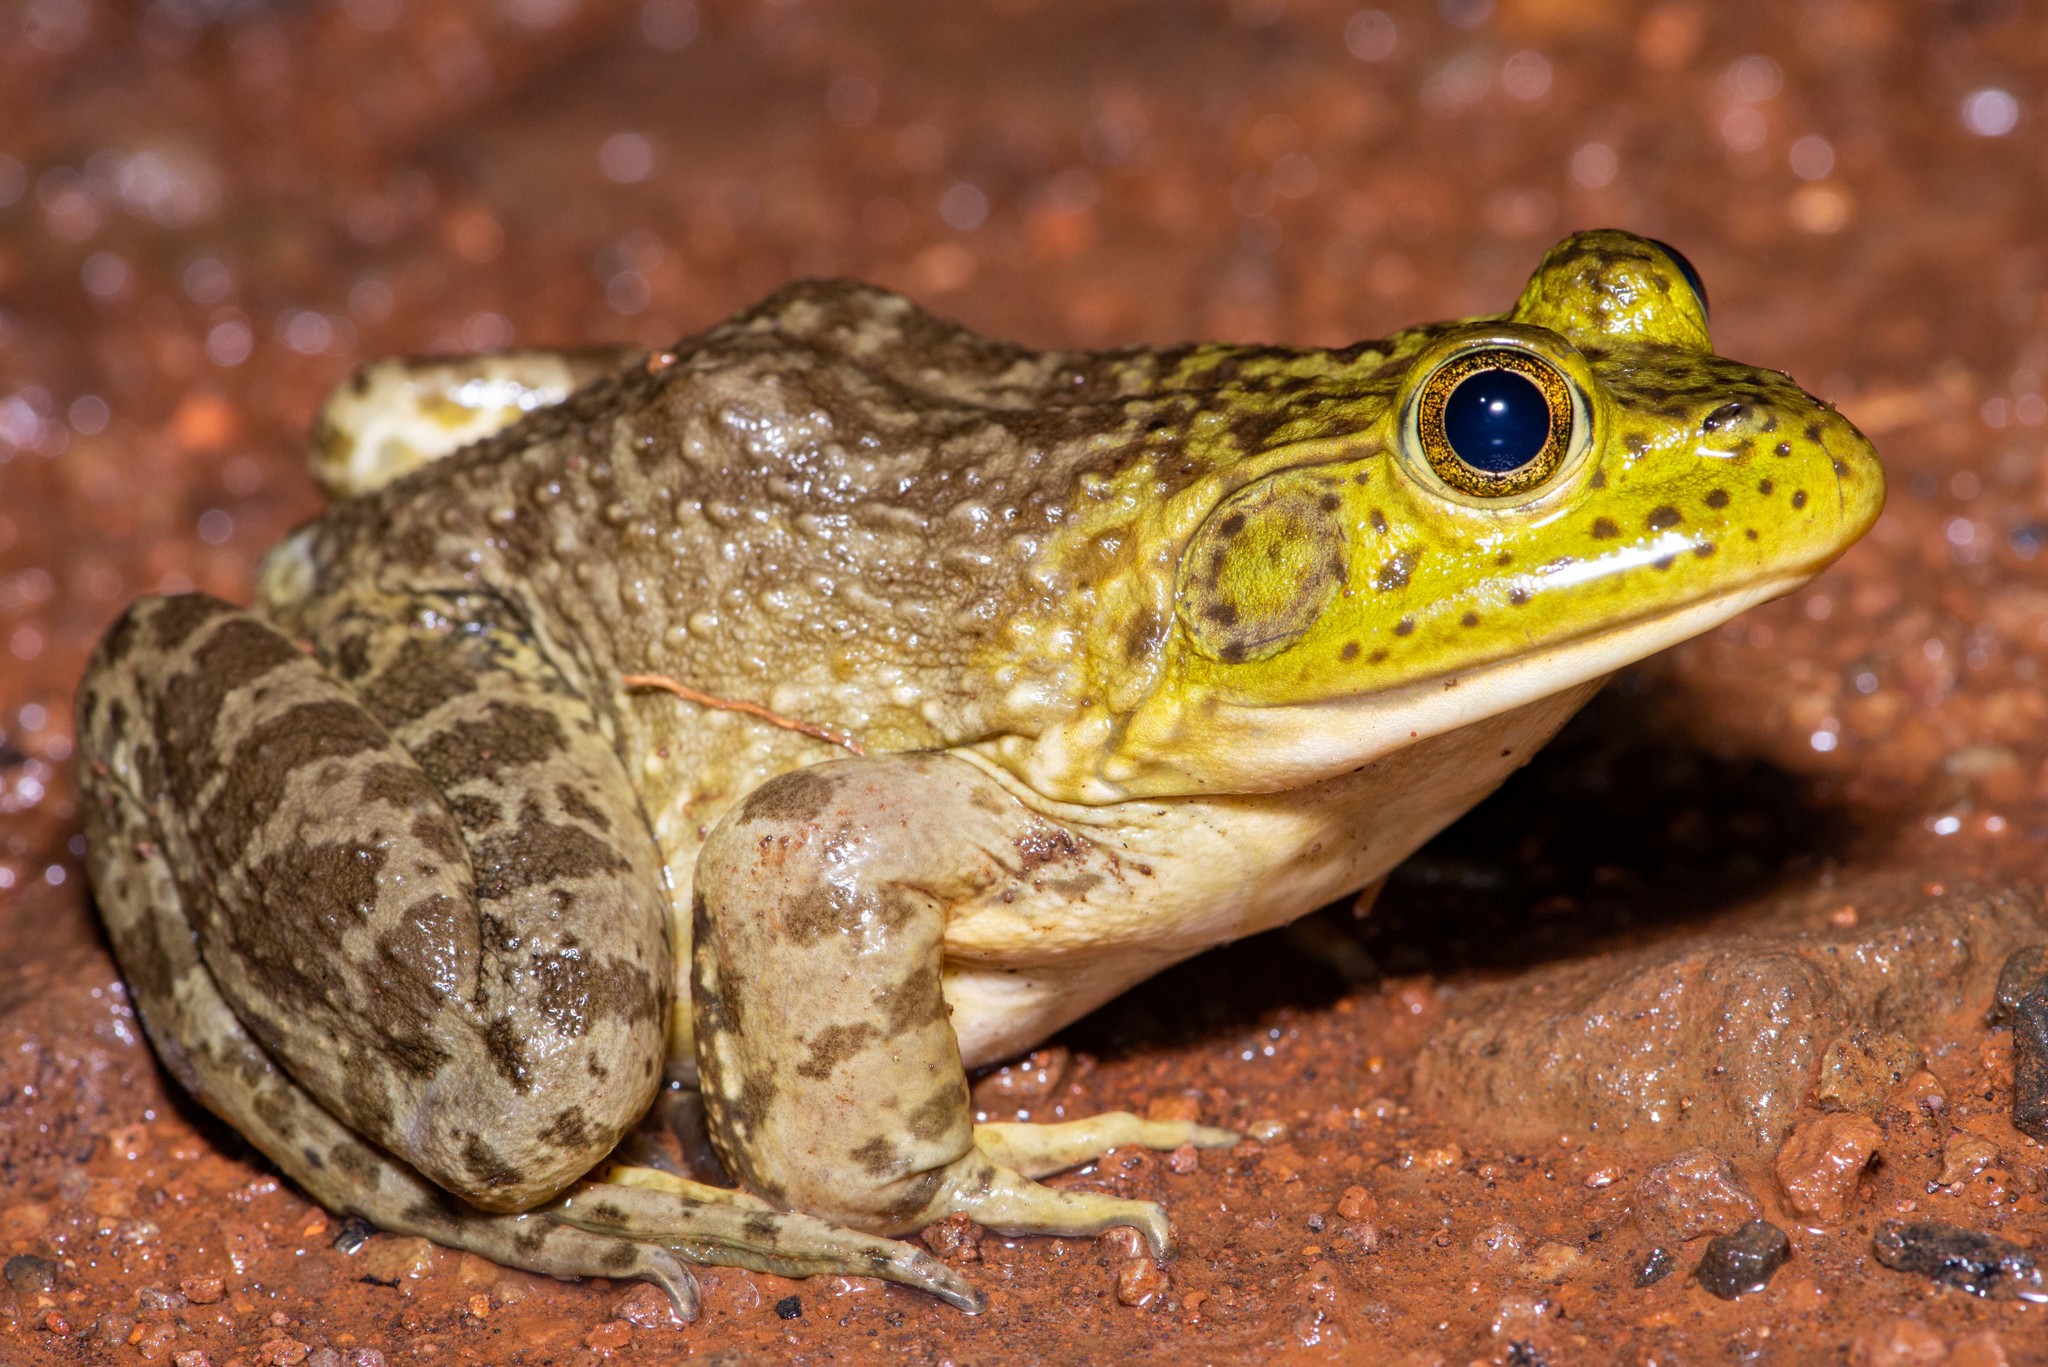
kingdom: Animalia
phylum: Chordata
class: Amphibia
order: Anura
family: Ranidae
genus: Lithobates
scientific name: Lithobates catesbeianus
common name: American bullfrog
